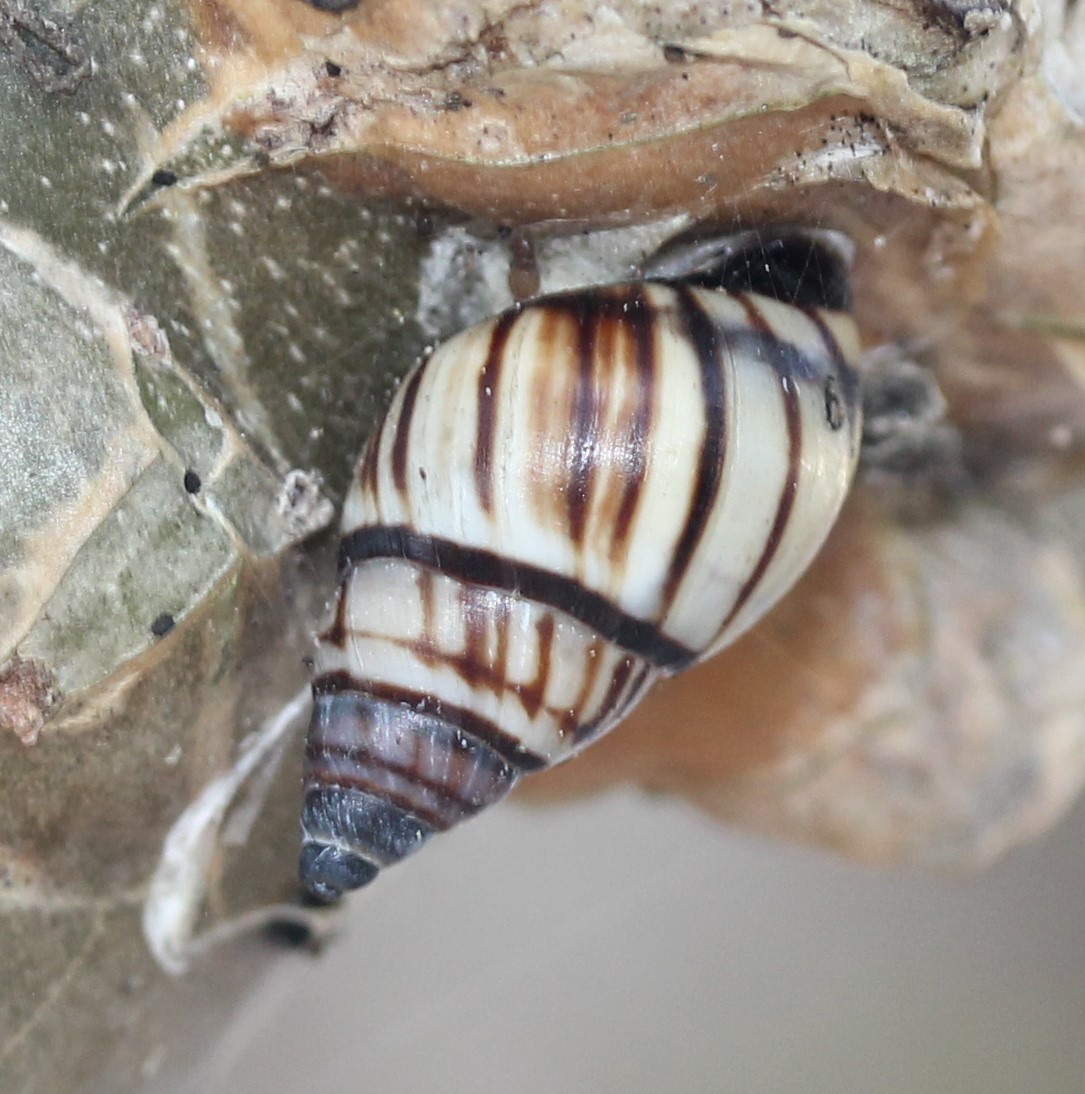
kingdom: Animalia
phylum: Mollusca
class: Gastropoda
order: Stylommatophora
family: Bulimulidae
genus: Drymaeus
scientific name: Drymaeus
